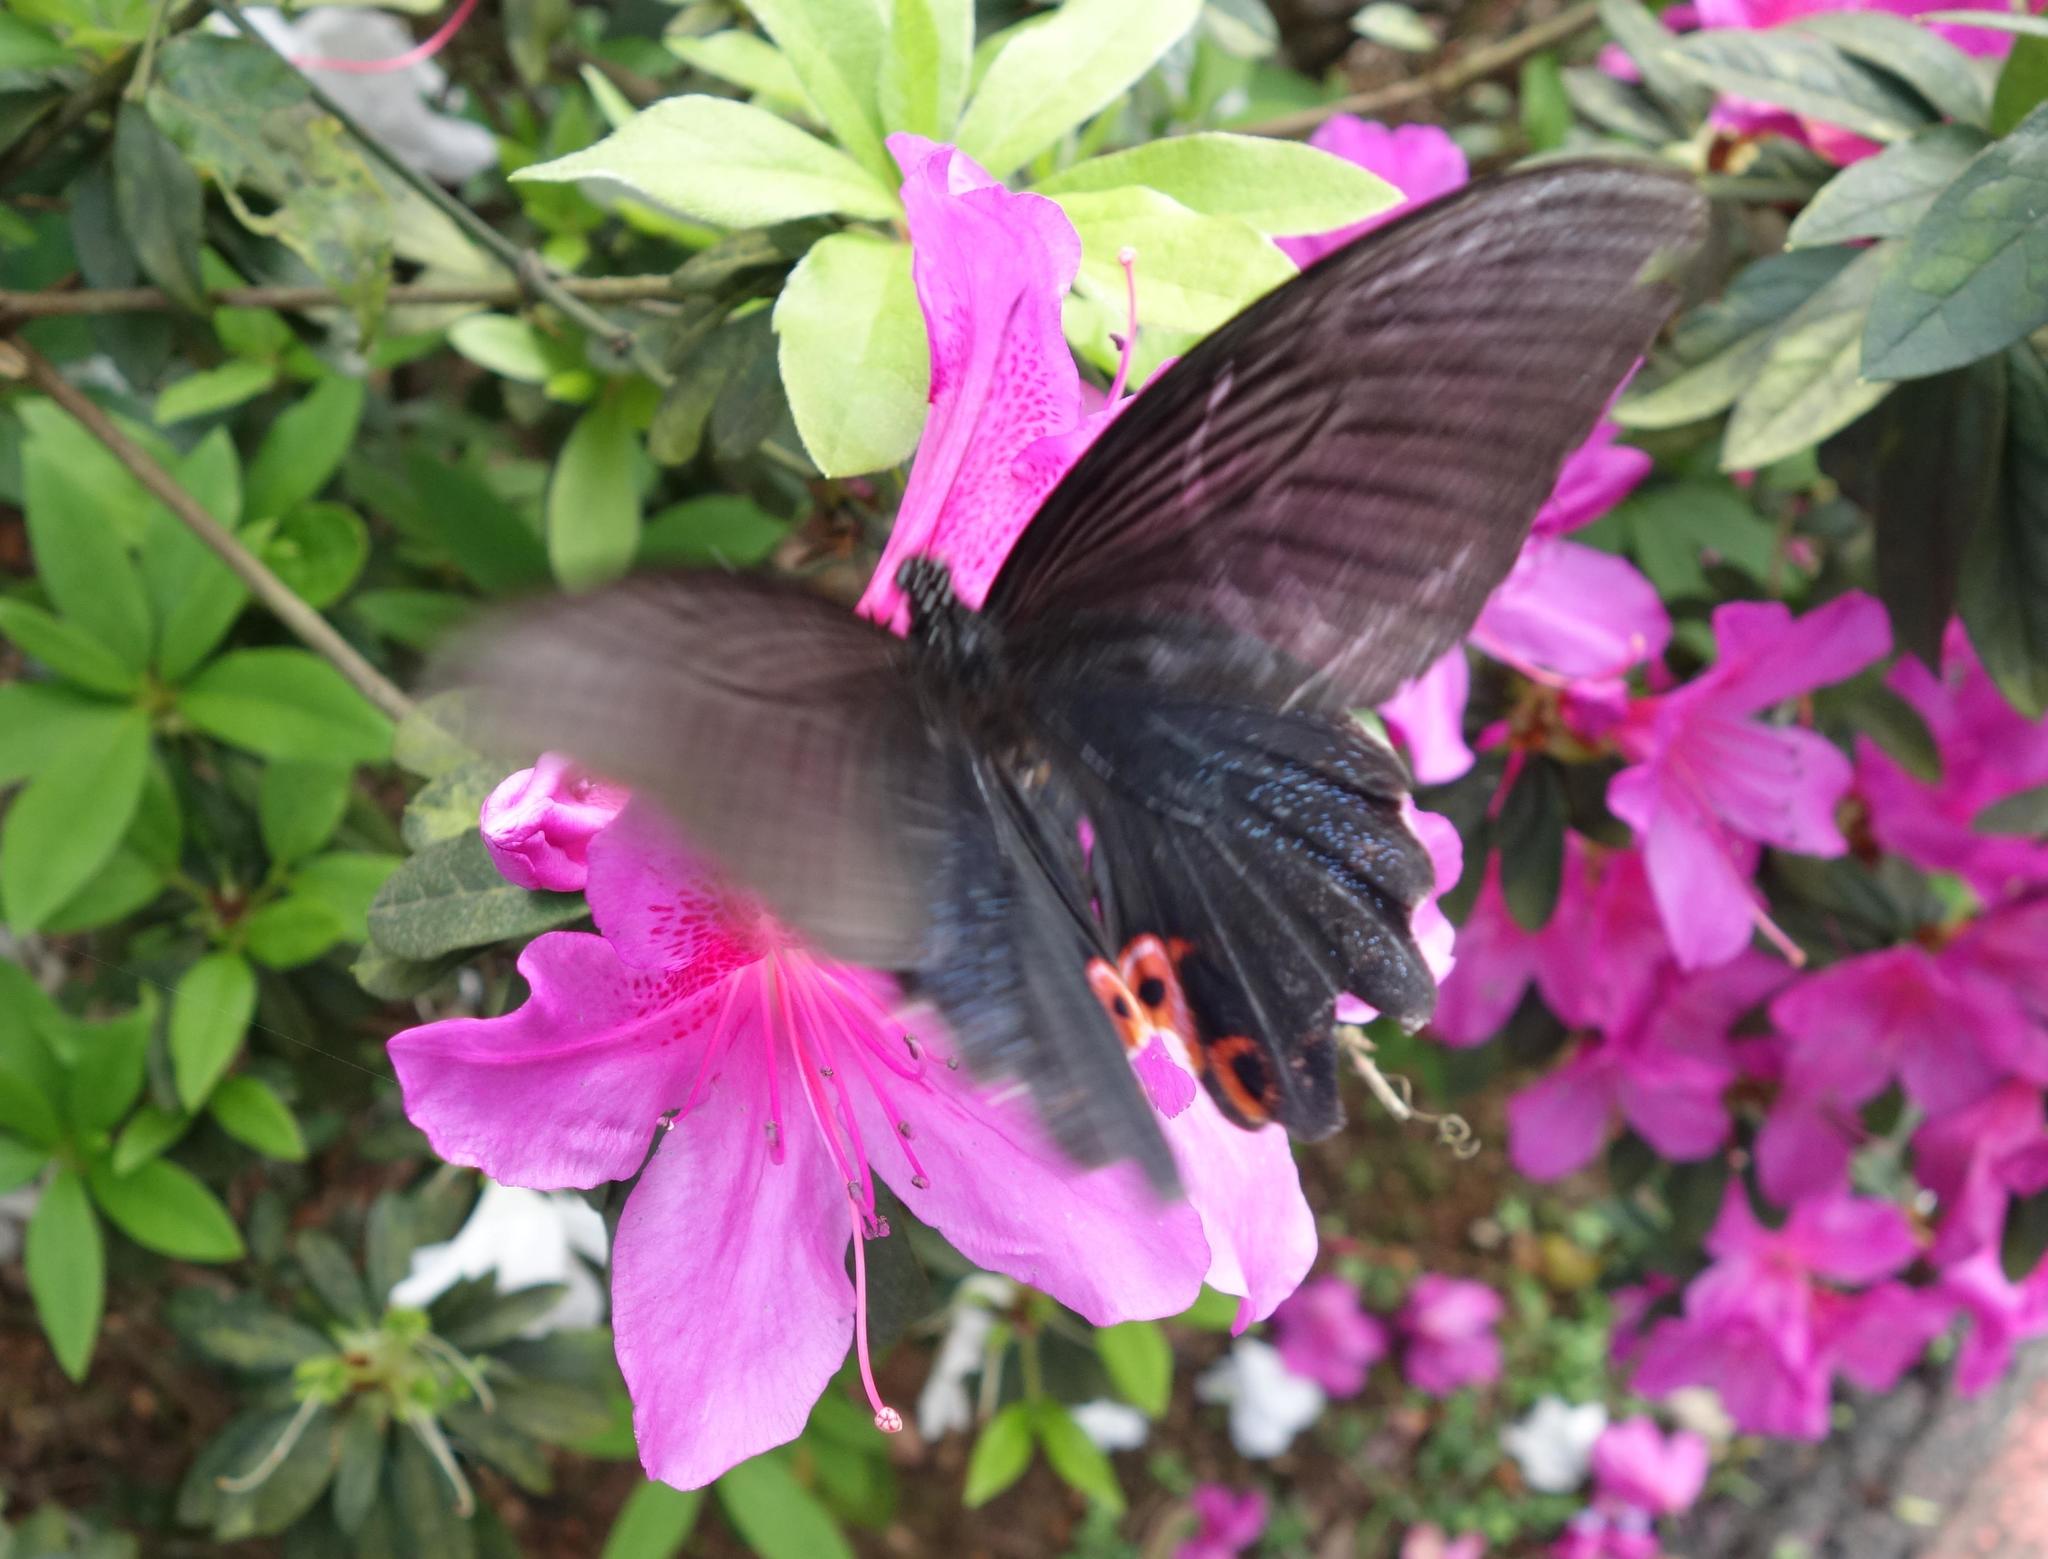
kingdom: Animalia
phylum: Arthropoda
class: Insecta
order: Lepidoptera
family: Papilionidae
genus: Papilio
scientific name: Papilio protenor
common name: Spangle
